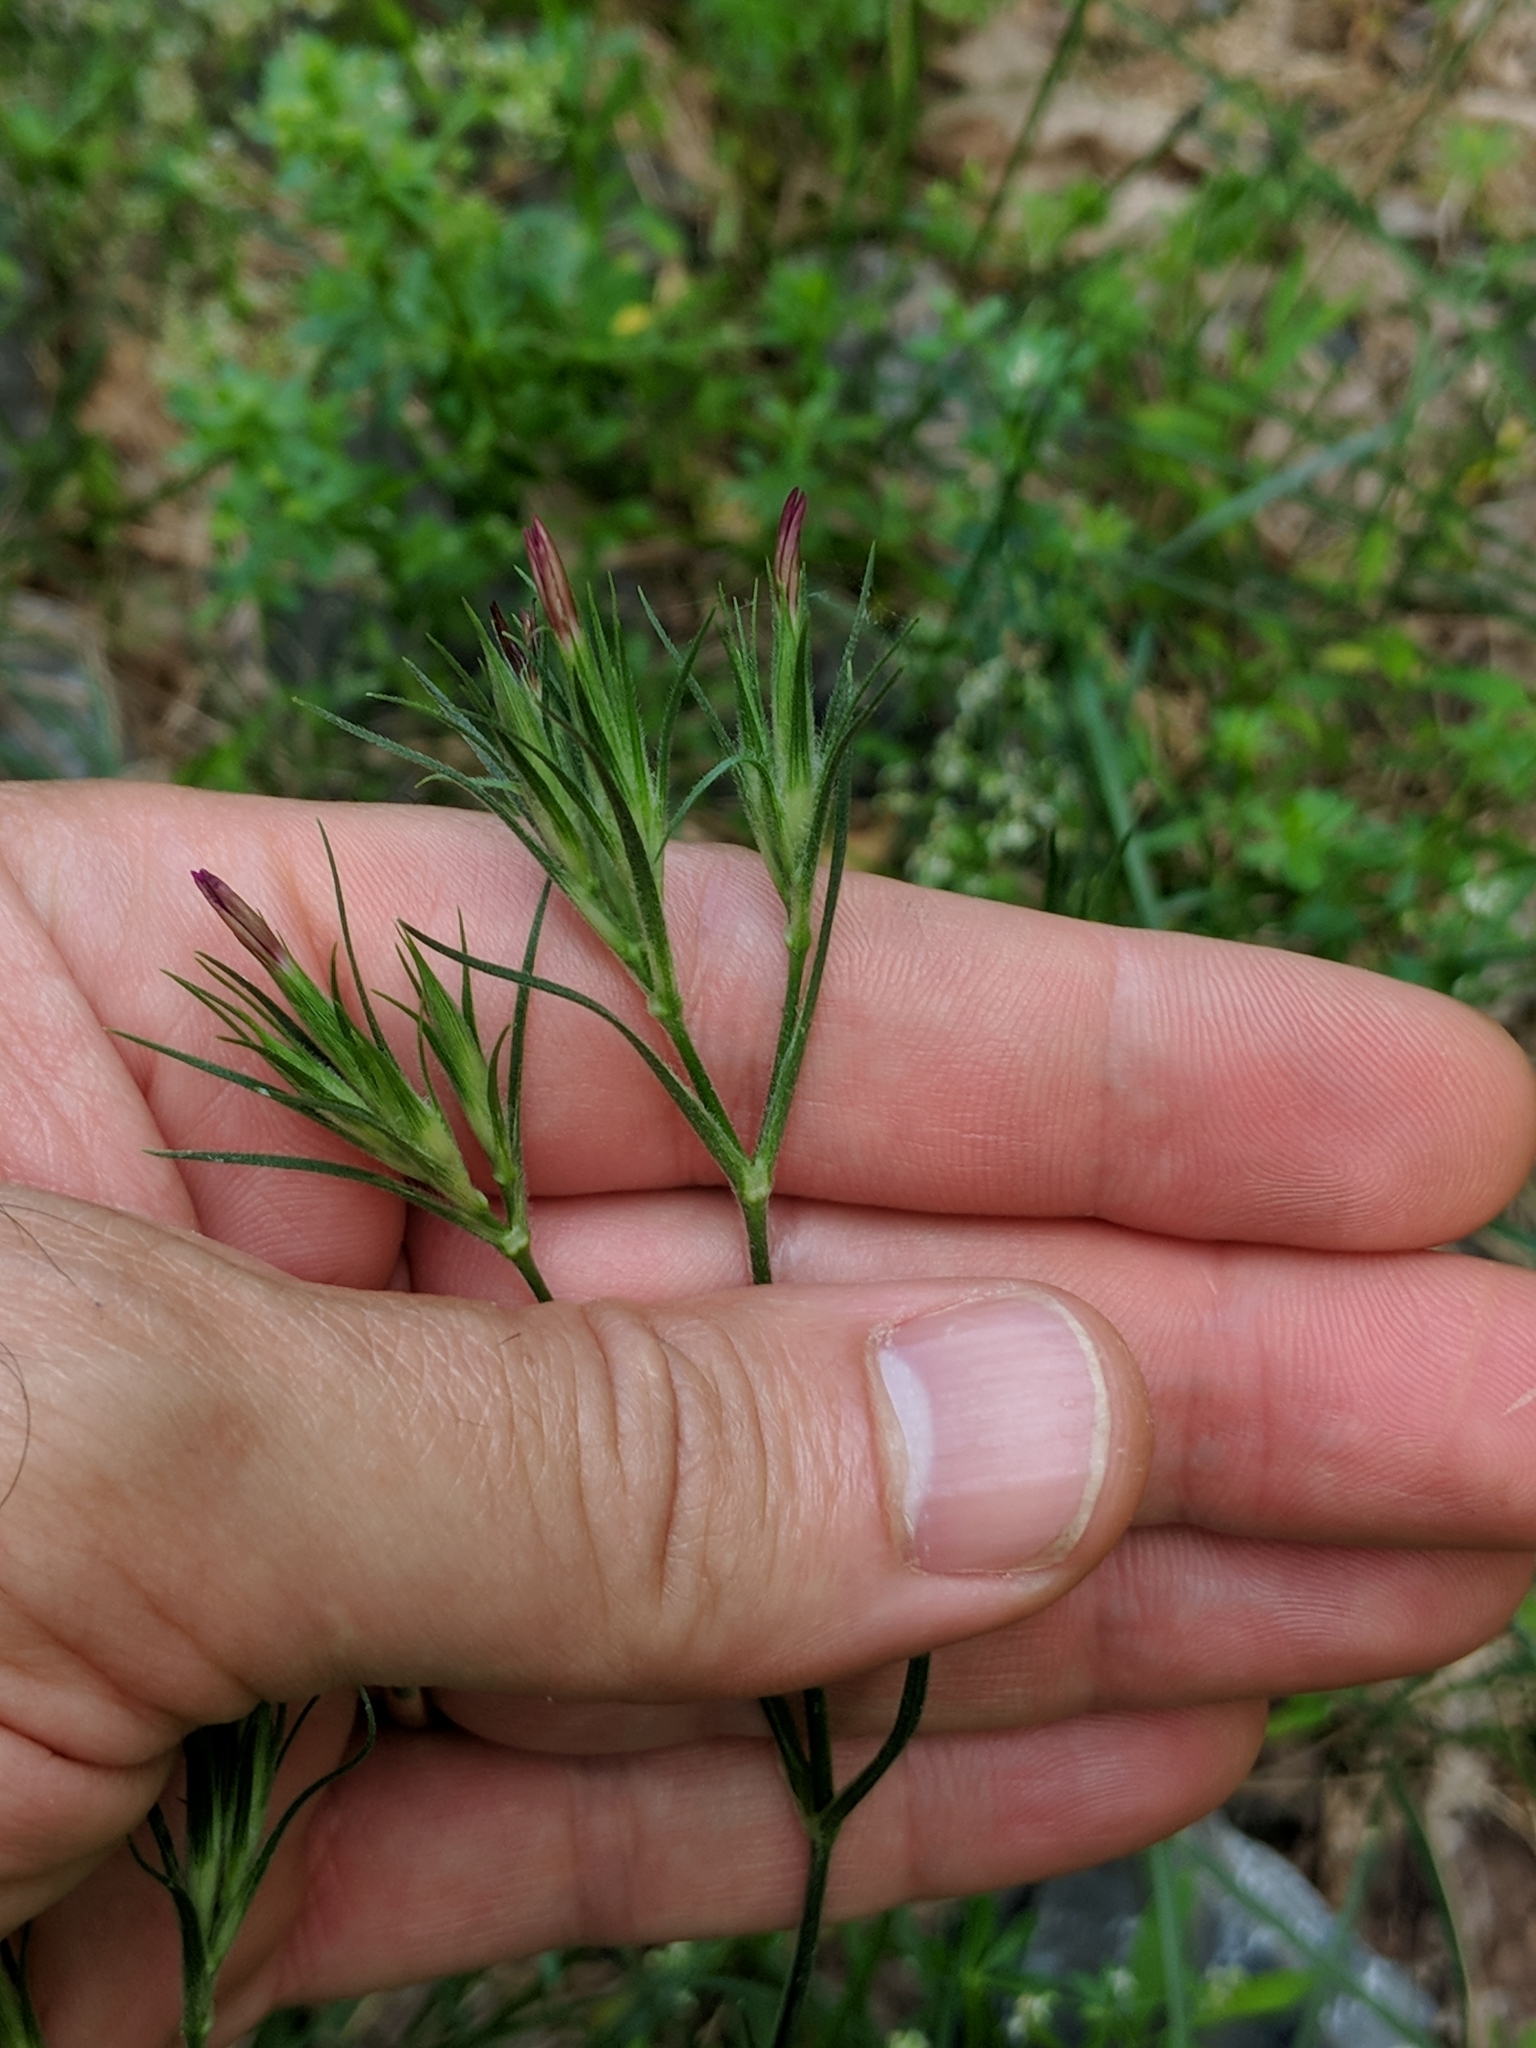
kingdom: Plantae
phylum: Tracheophyta
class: Magnoliopsida
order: Caryophyllales
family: Caryophyllaceae
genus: Dianthus
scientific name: Dianthus armeria
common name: Deptford pink
